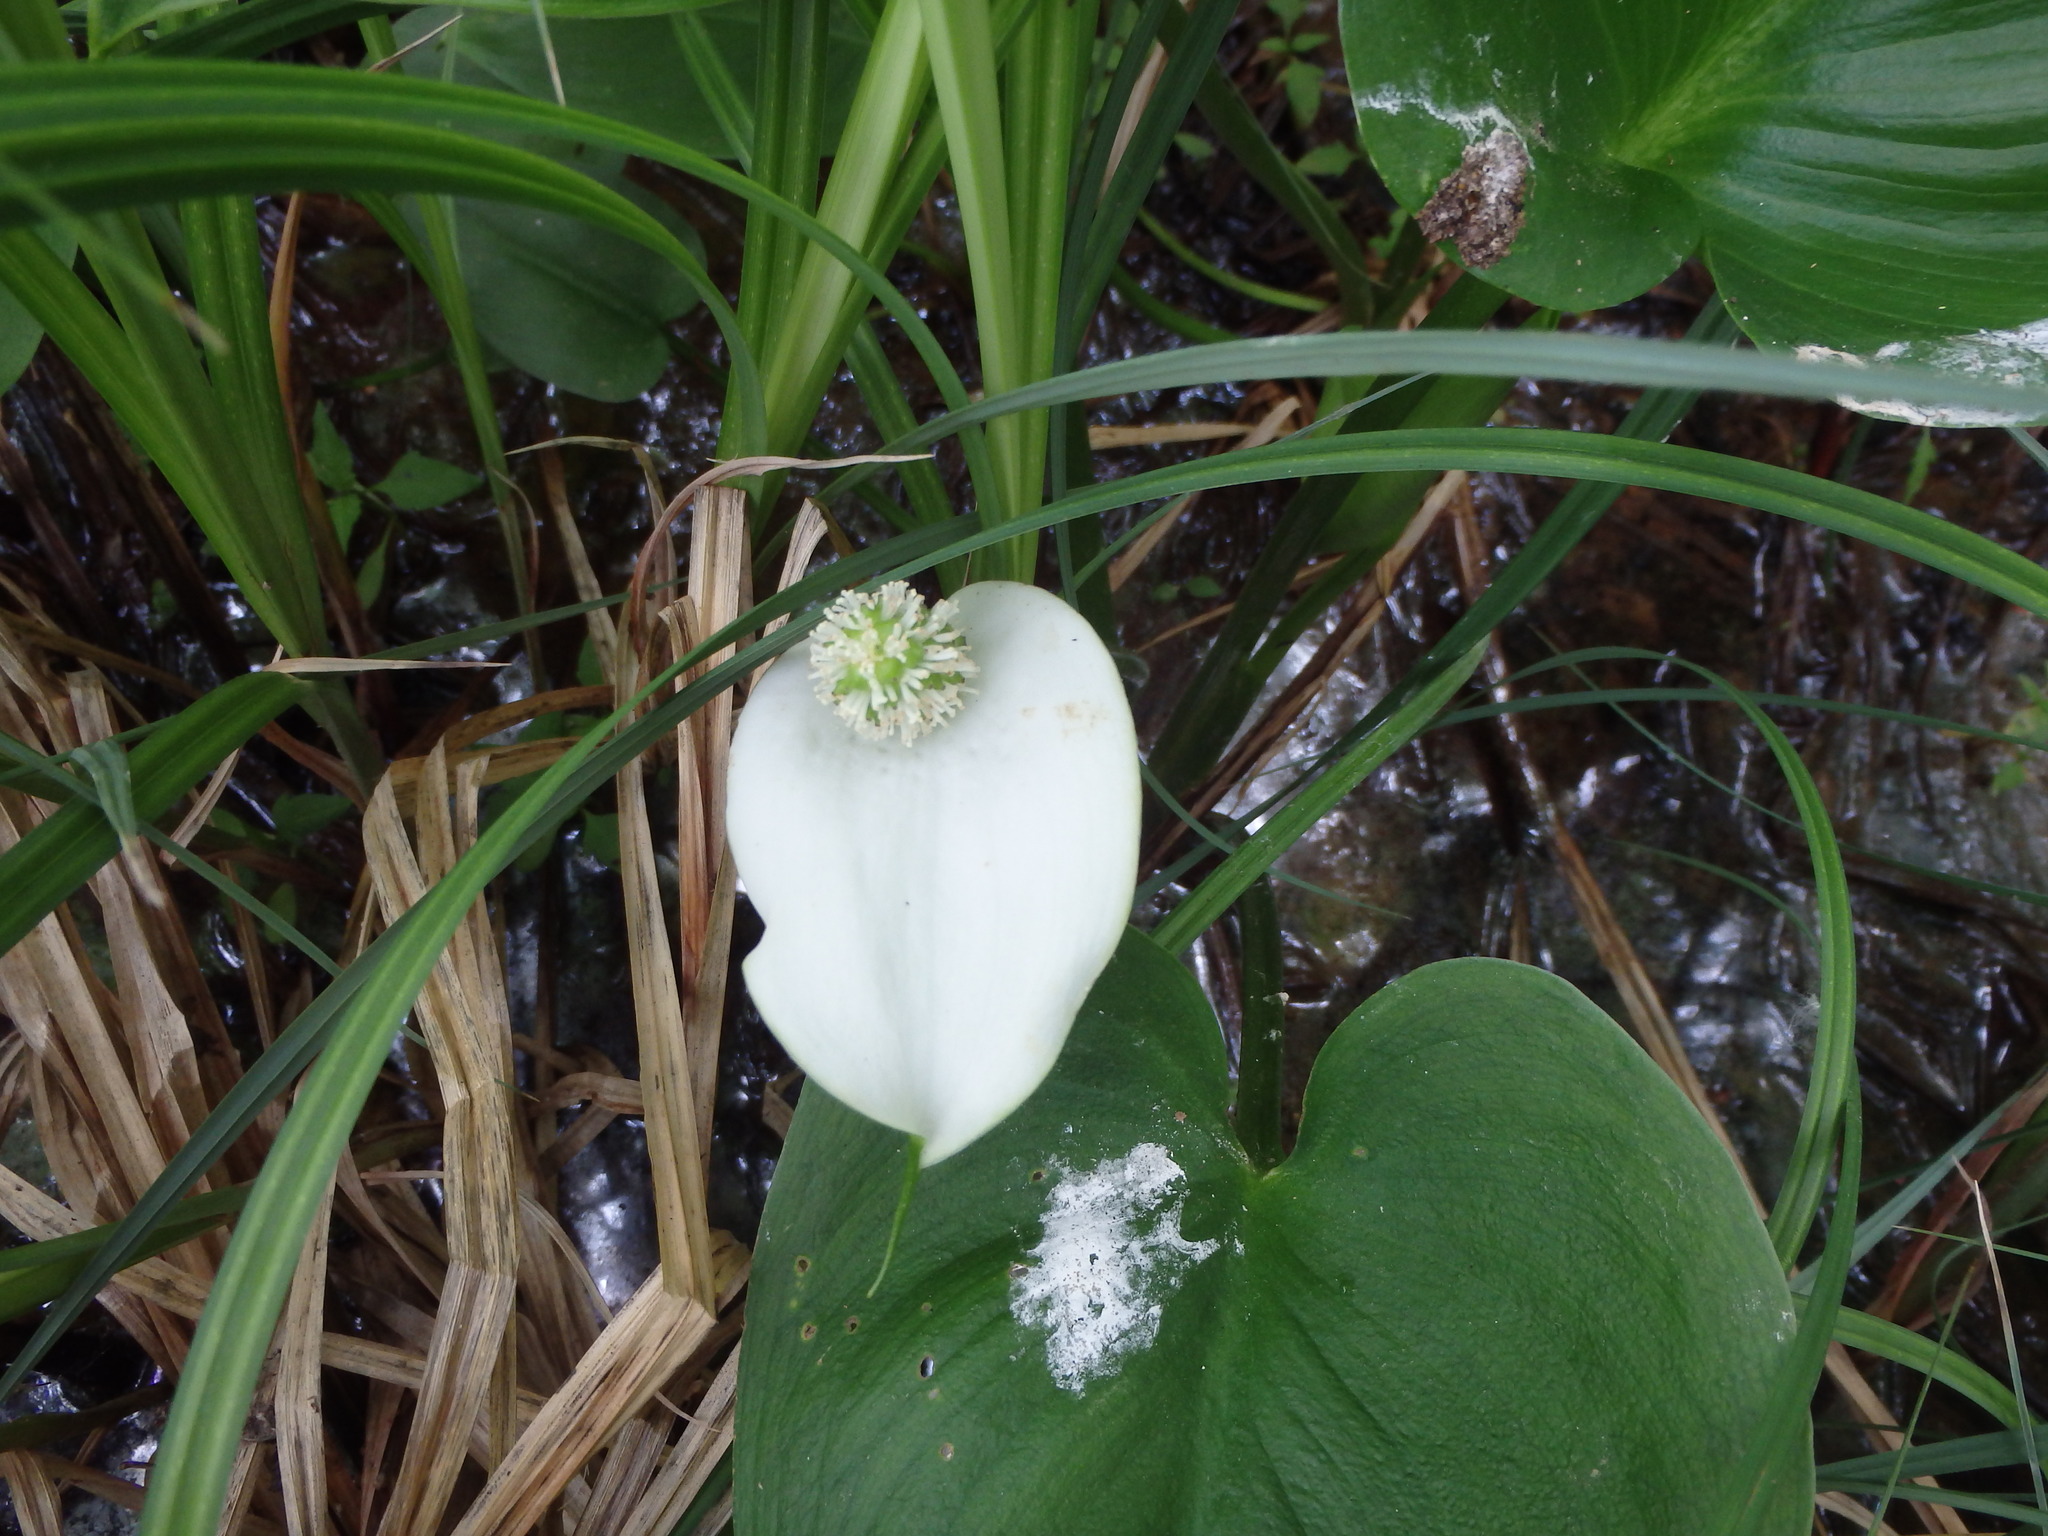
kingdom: Plantae
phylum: Tracheophyta
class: Liliopsida
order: Alismatales
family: Araceae
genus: Calla
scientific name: Calla palustris
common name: Bog arum
